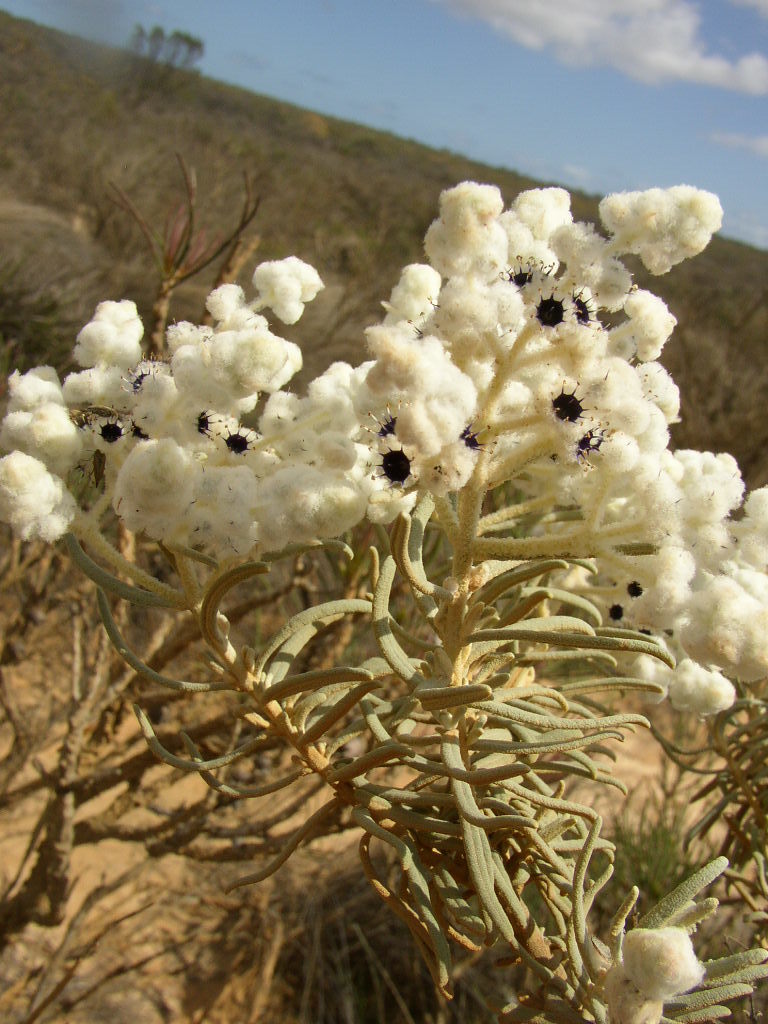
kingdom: Plantae
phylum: Tracheophyta
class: Magnoliopsida
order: Lamiales
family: Lamiaceae
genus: Lachnostachys
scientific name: Lachnostachys eriobotrya
